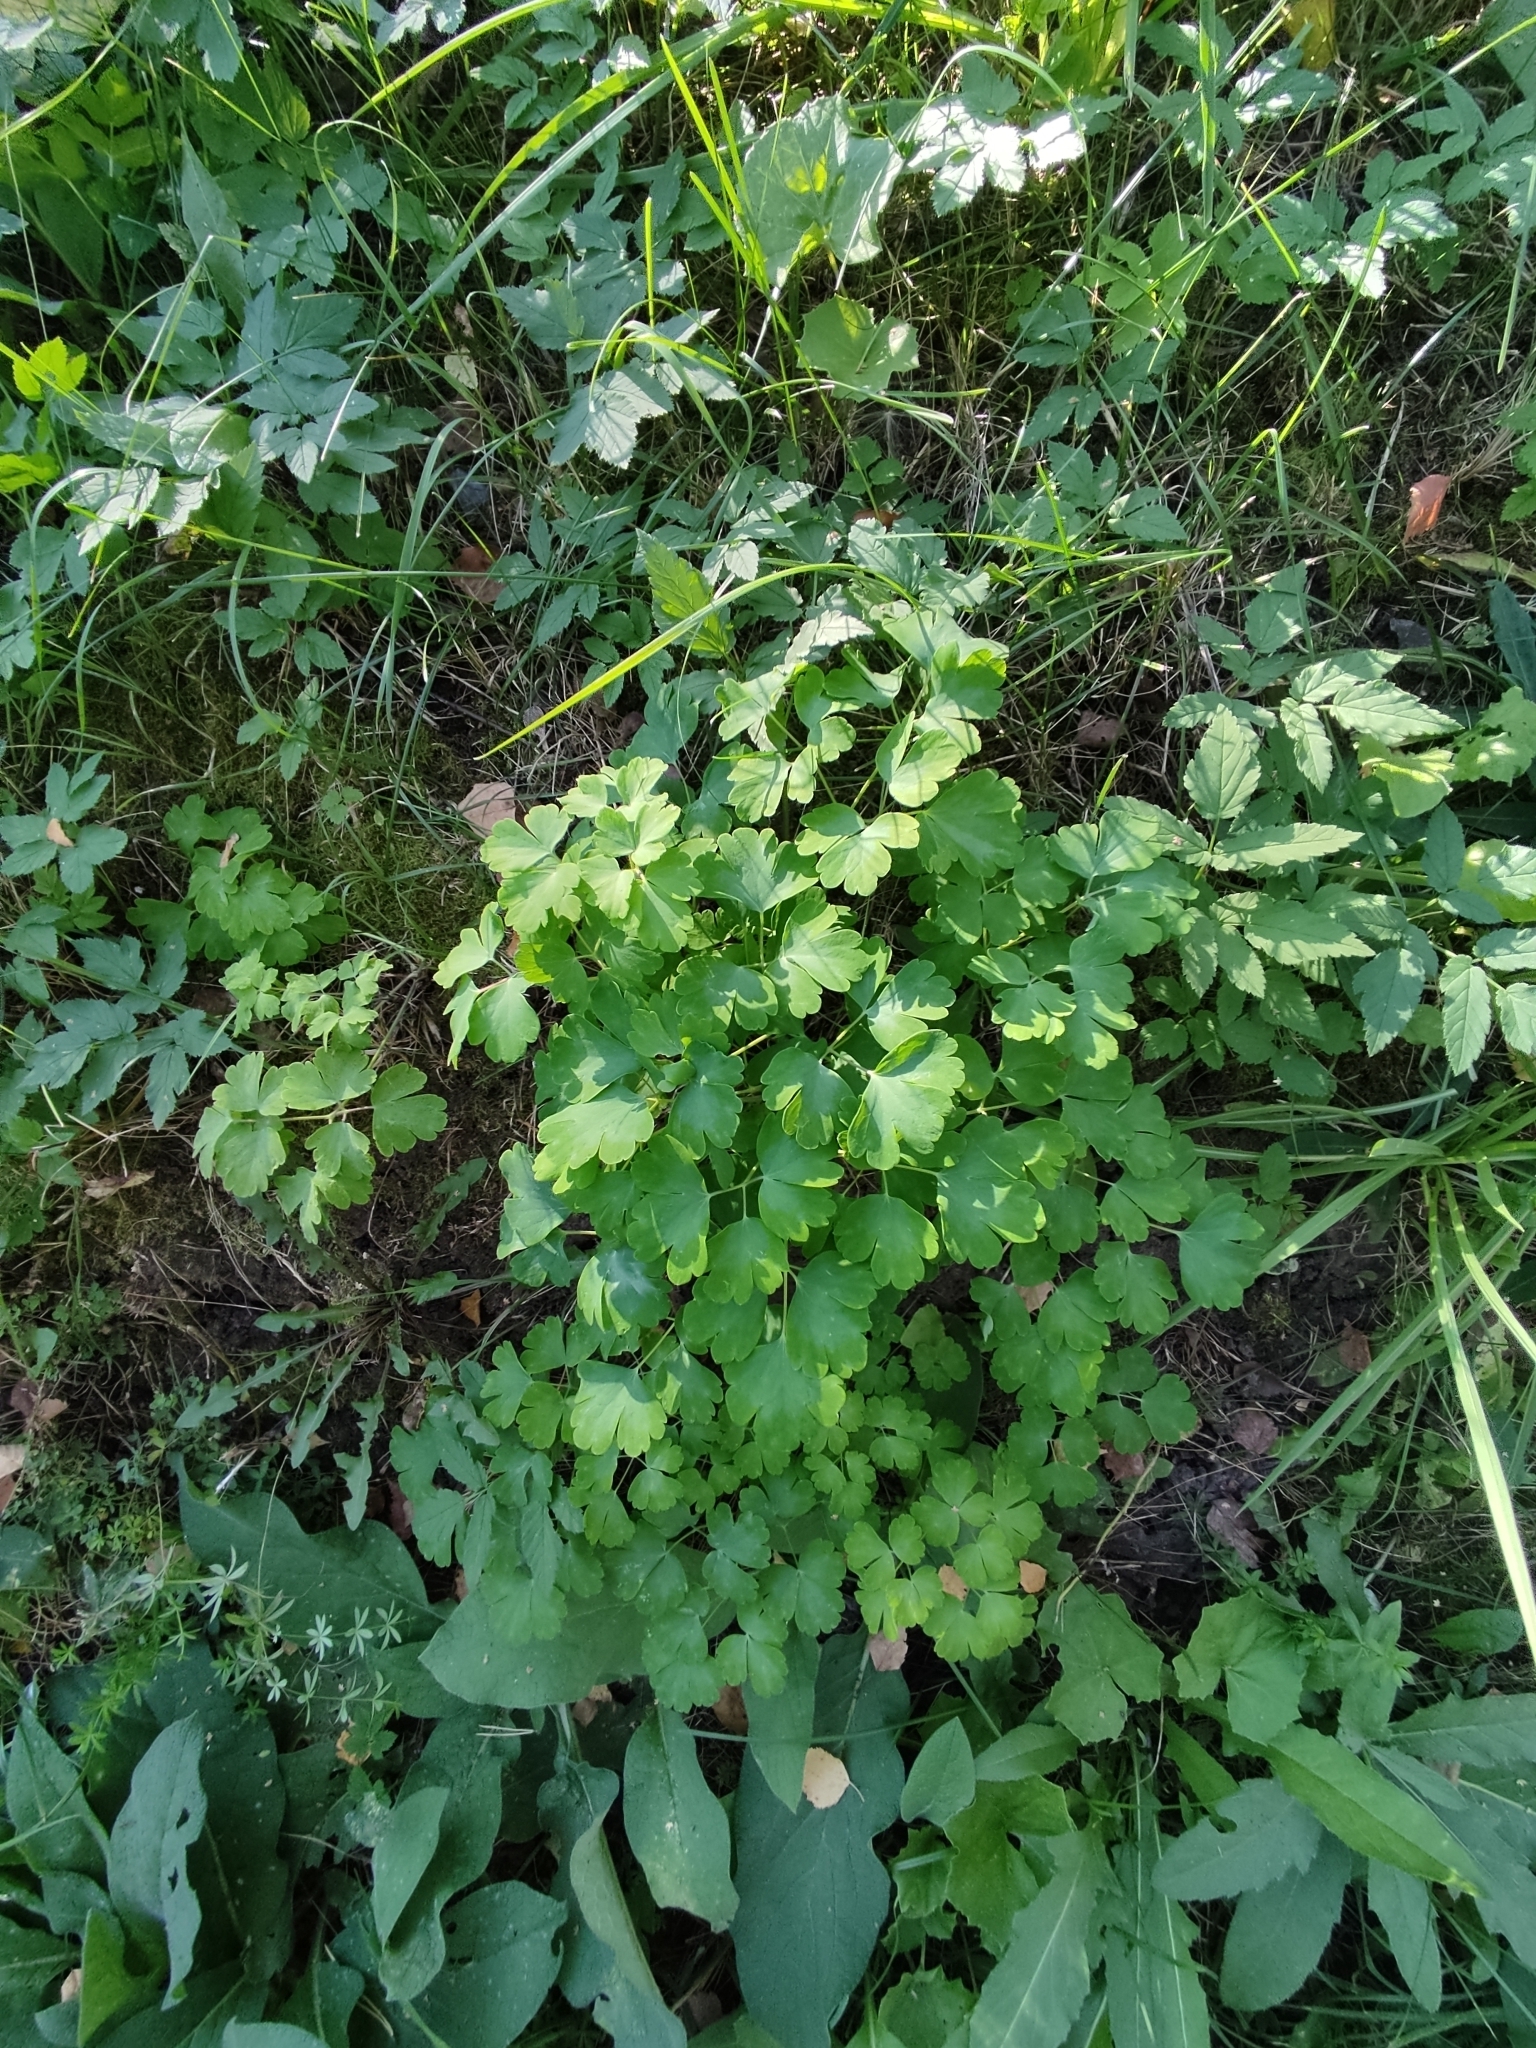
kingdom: Plantae
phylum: Tracheophyta
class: Magnoliopsida
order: Ranunculales
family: Ranunculaceae
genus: Aquilegia
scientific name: Aquilegia vulgaris
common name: Columbine
